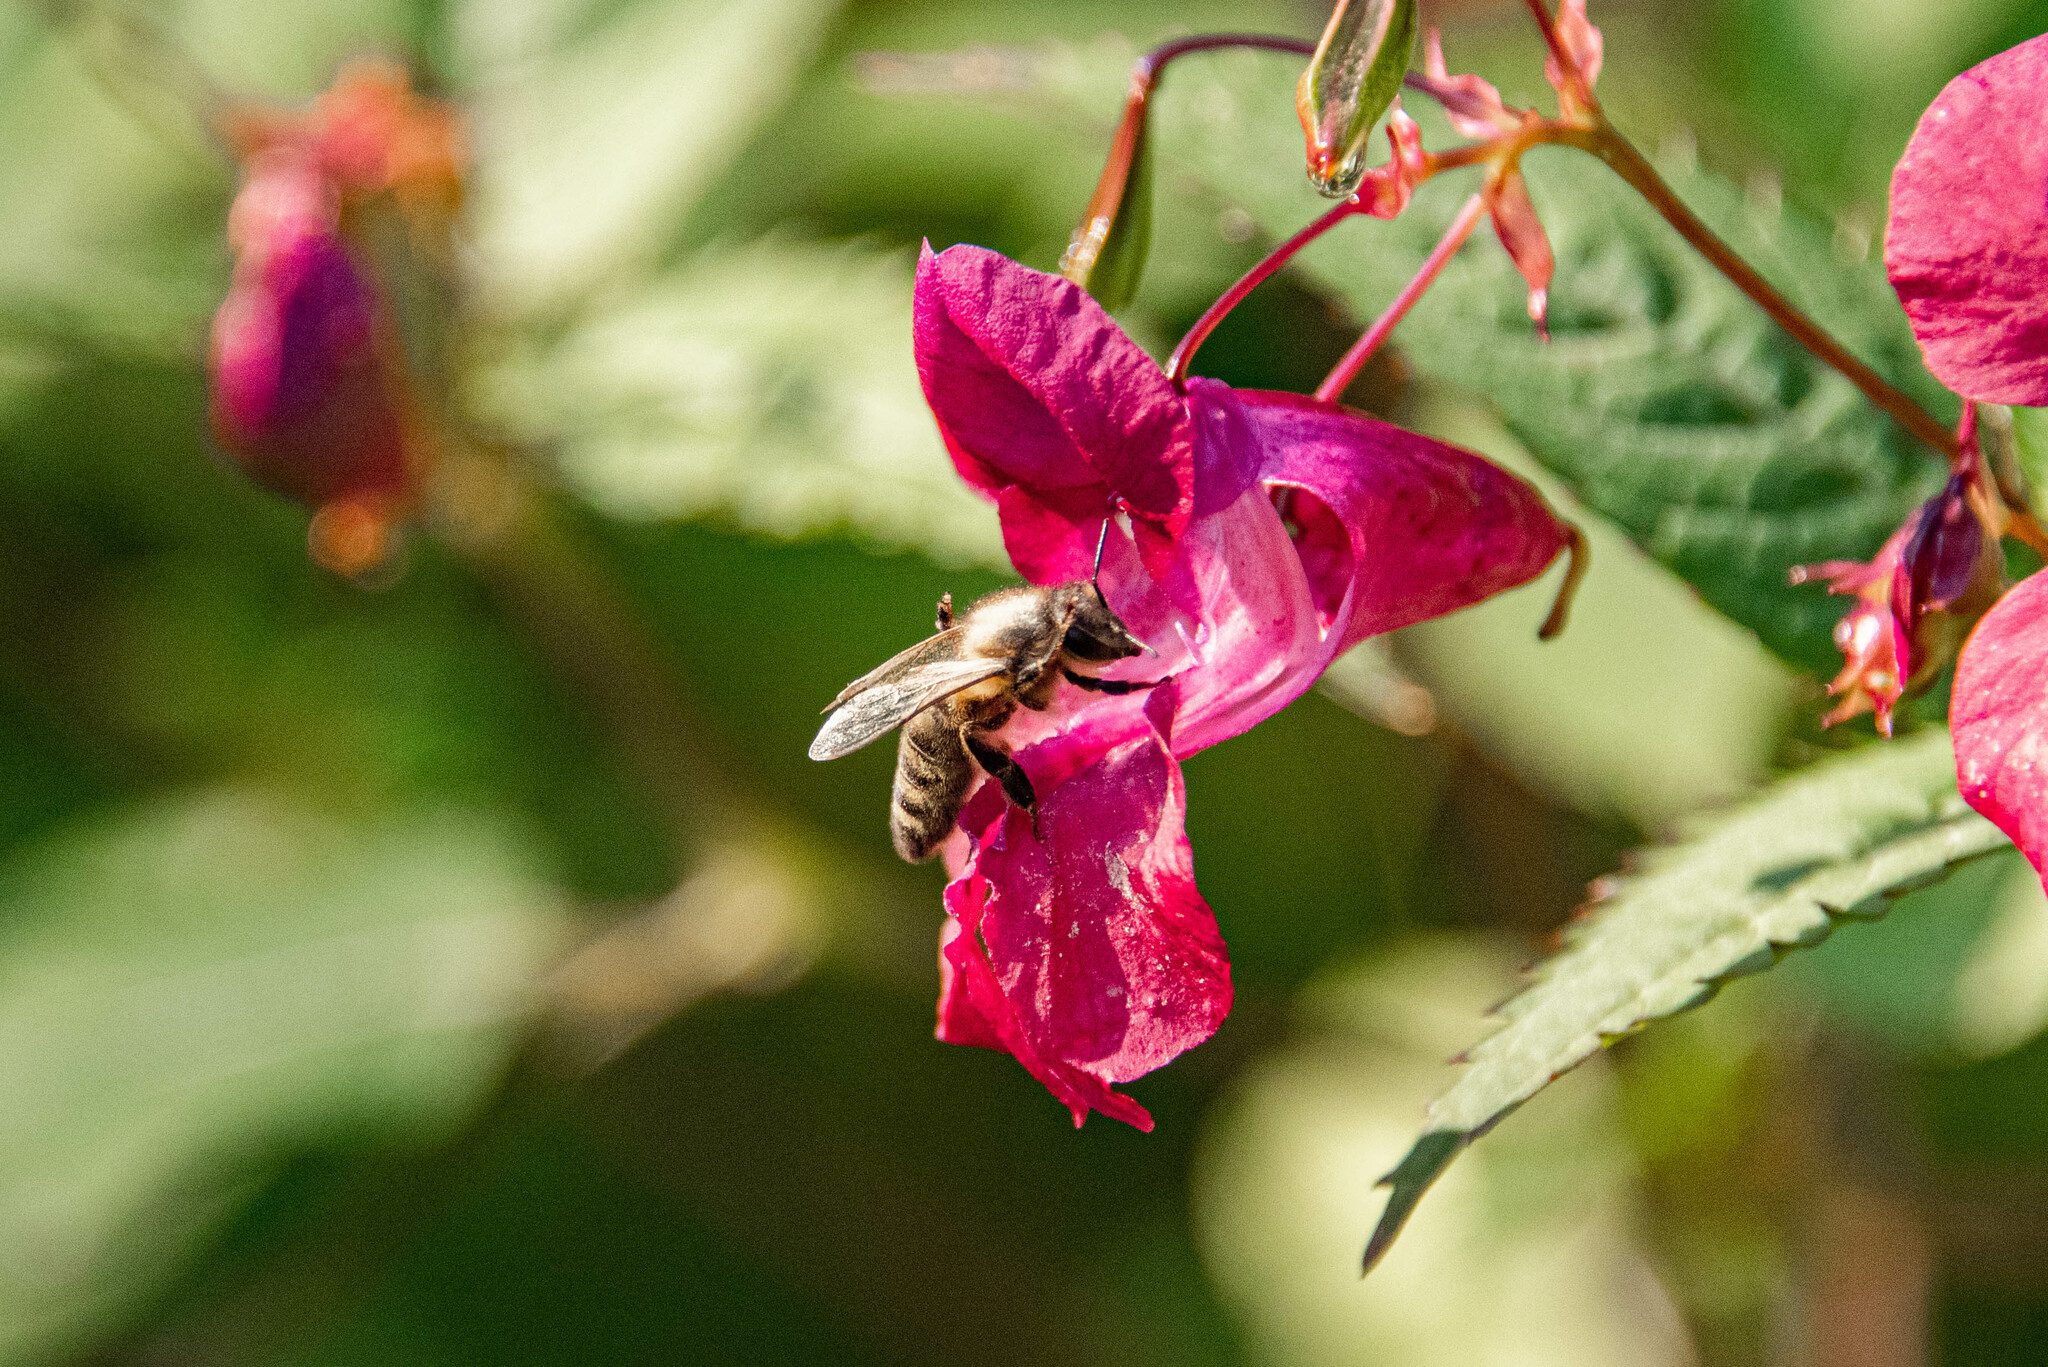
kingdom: Animalia
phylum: Arthropoda
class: Insecta
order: Hymenoptera
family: Apidae
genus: Apis
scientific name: Apis mellifera
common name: Honey bee
